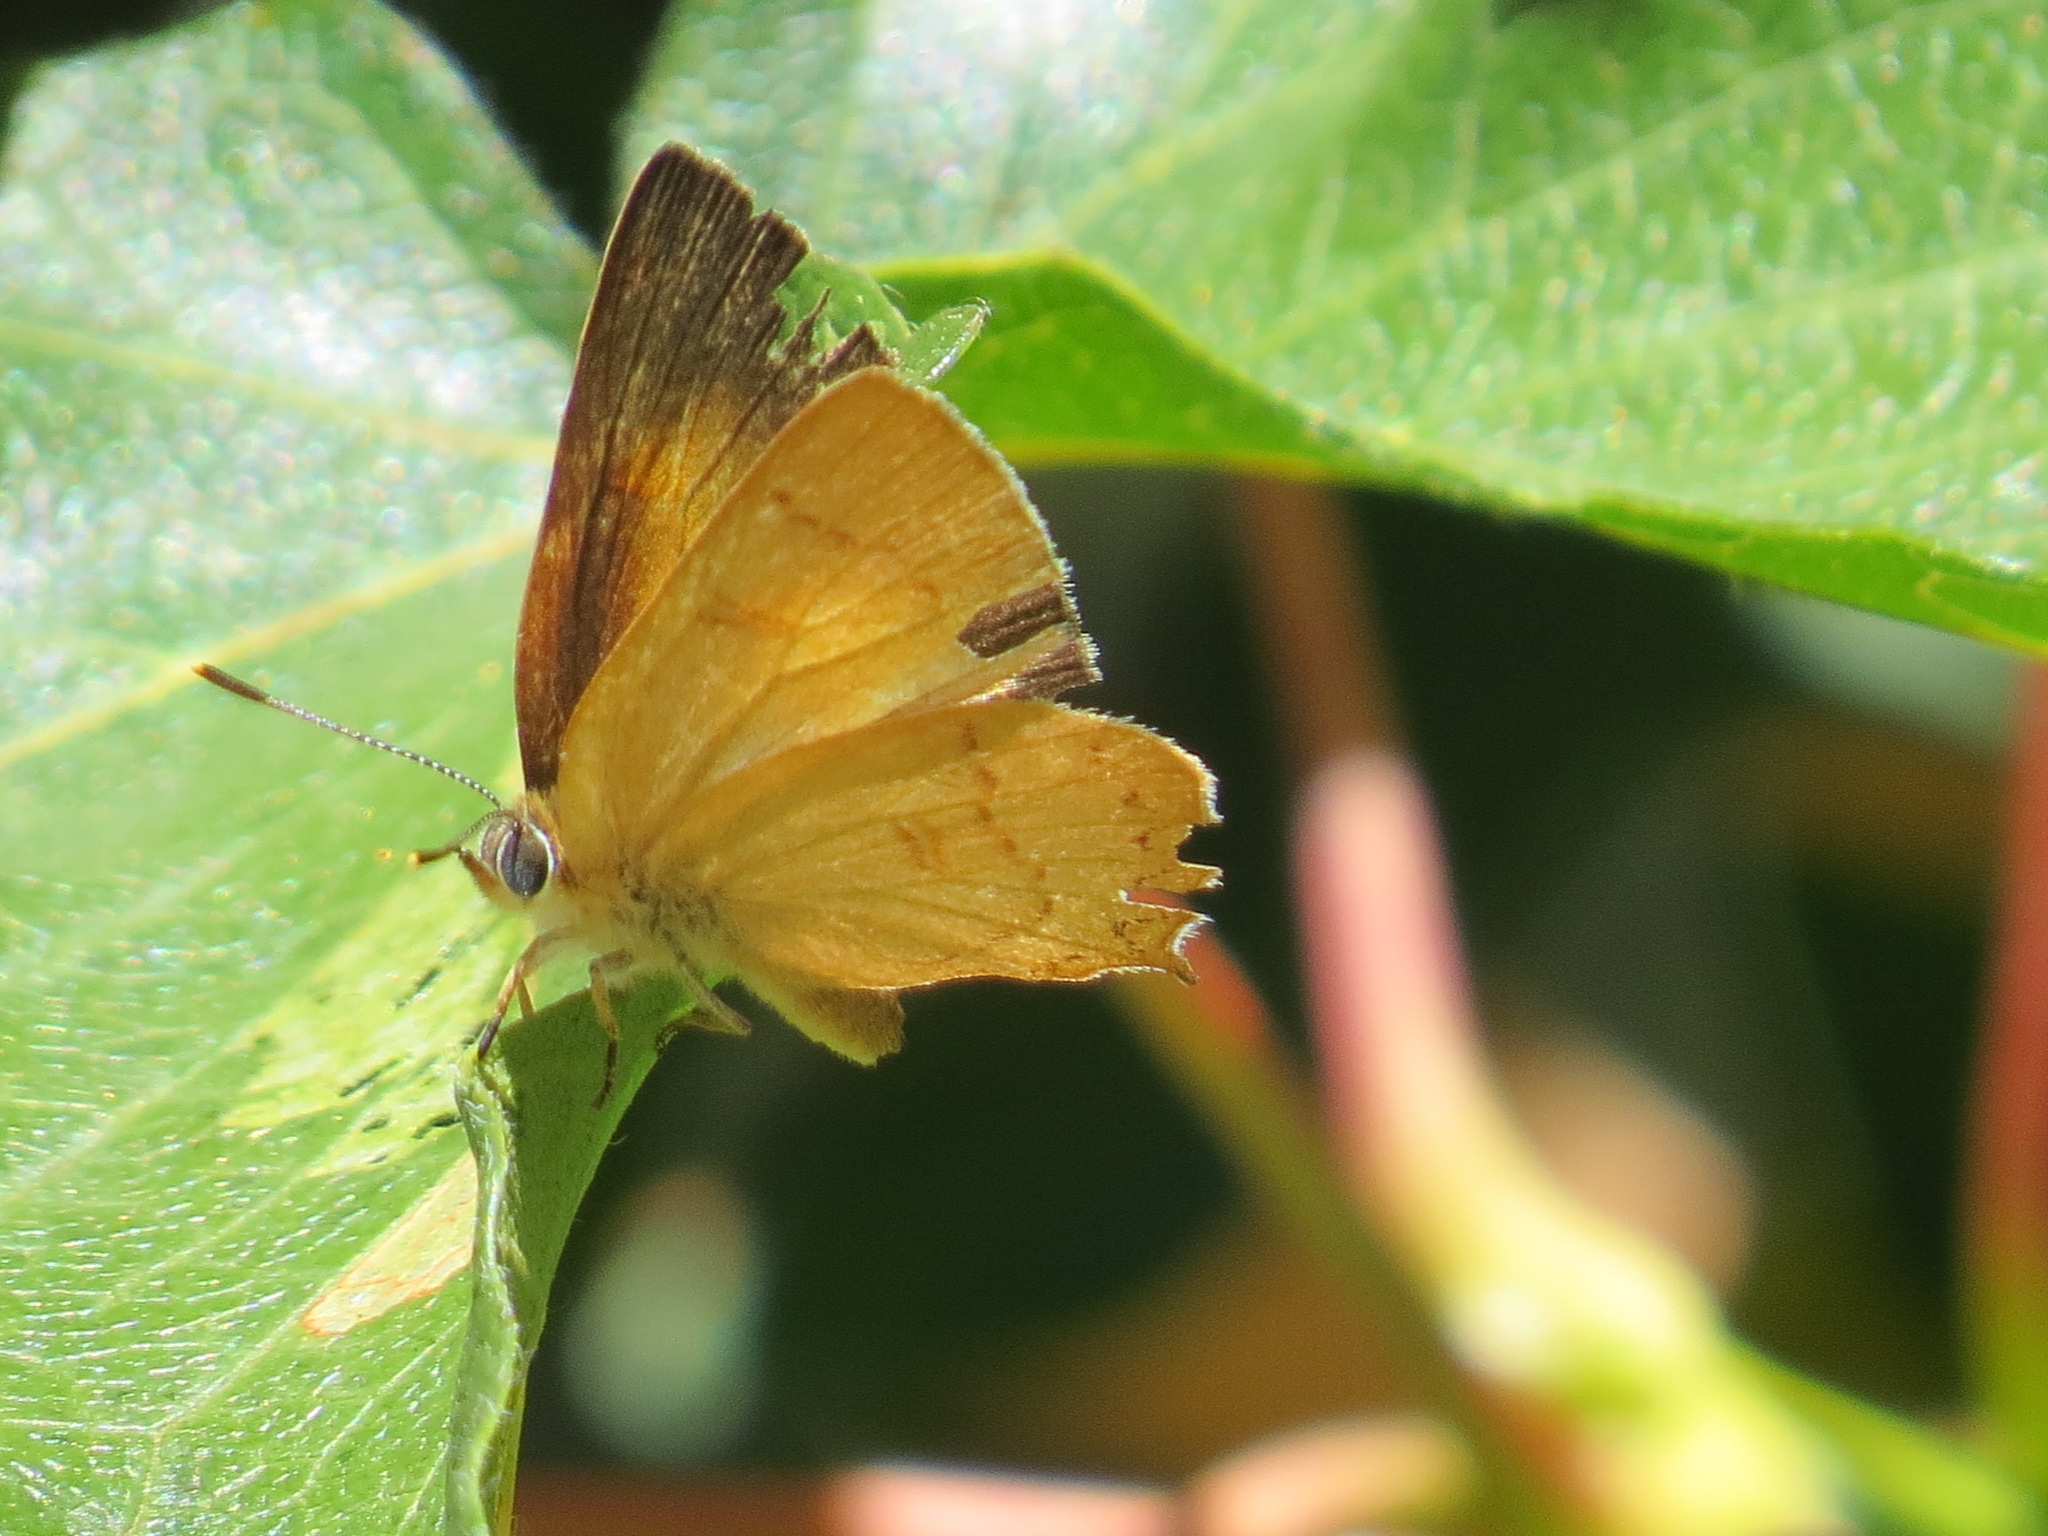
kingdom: Animalia
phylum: Arthropoda
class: Insecta
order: Lepidoptera
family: Lycaenidae
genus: Habrodais
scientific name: Habrodais grunus
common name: Golden hairstreak
